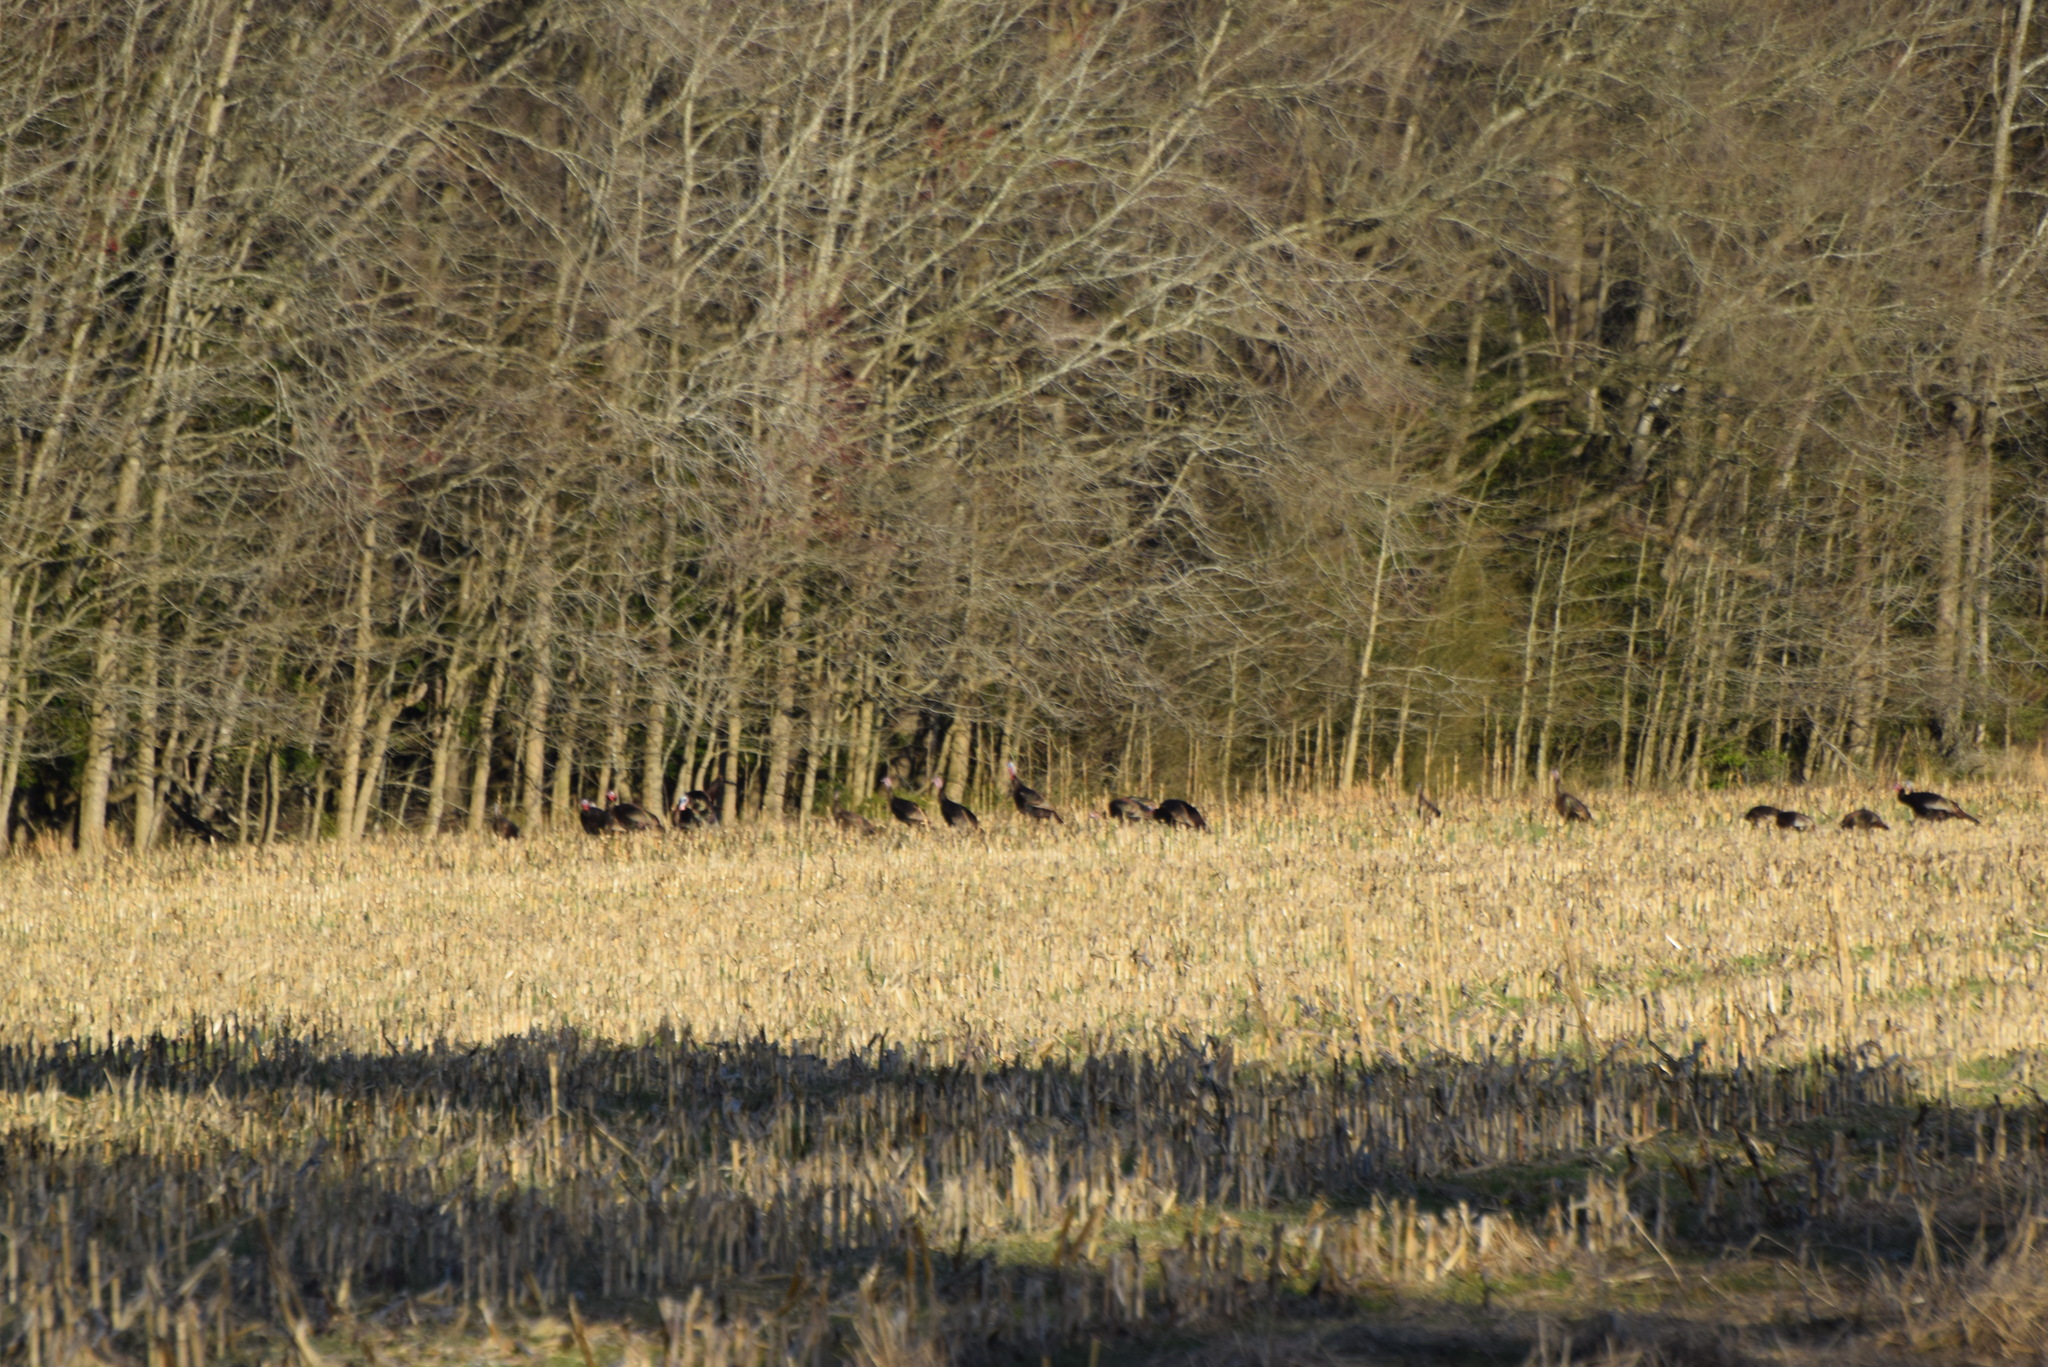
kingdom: Animalia
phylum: Chordata
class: Aves
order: Galliformes
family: Phasianidae
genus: Meleagris
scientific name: Meleagris gallopavo
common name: Wild turkey
